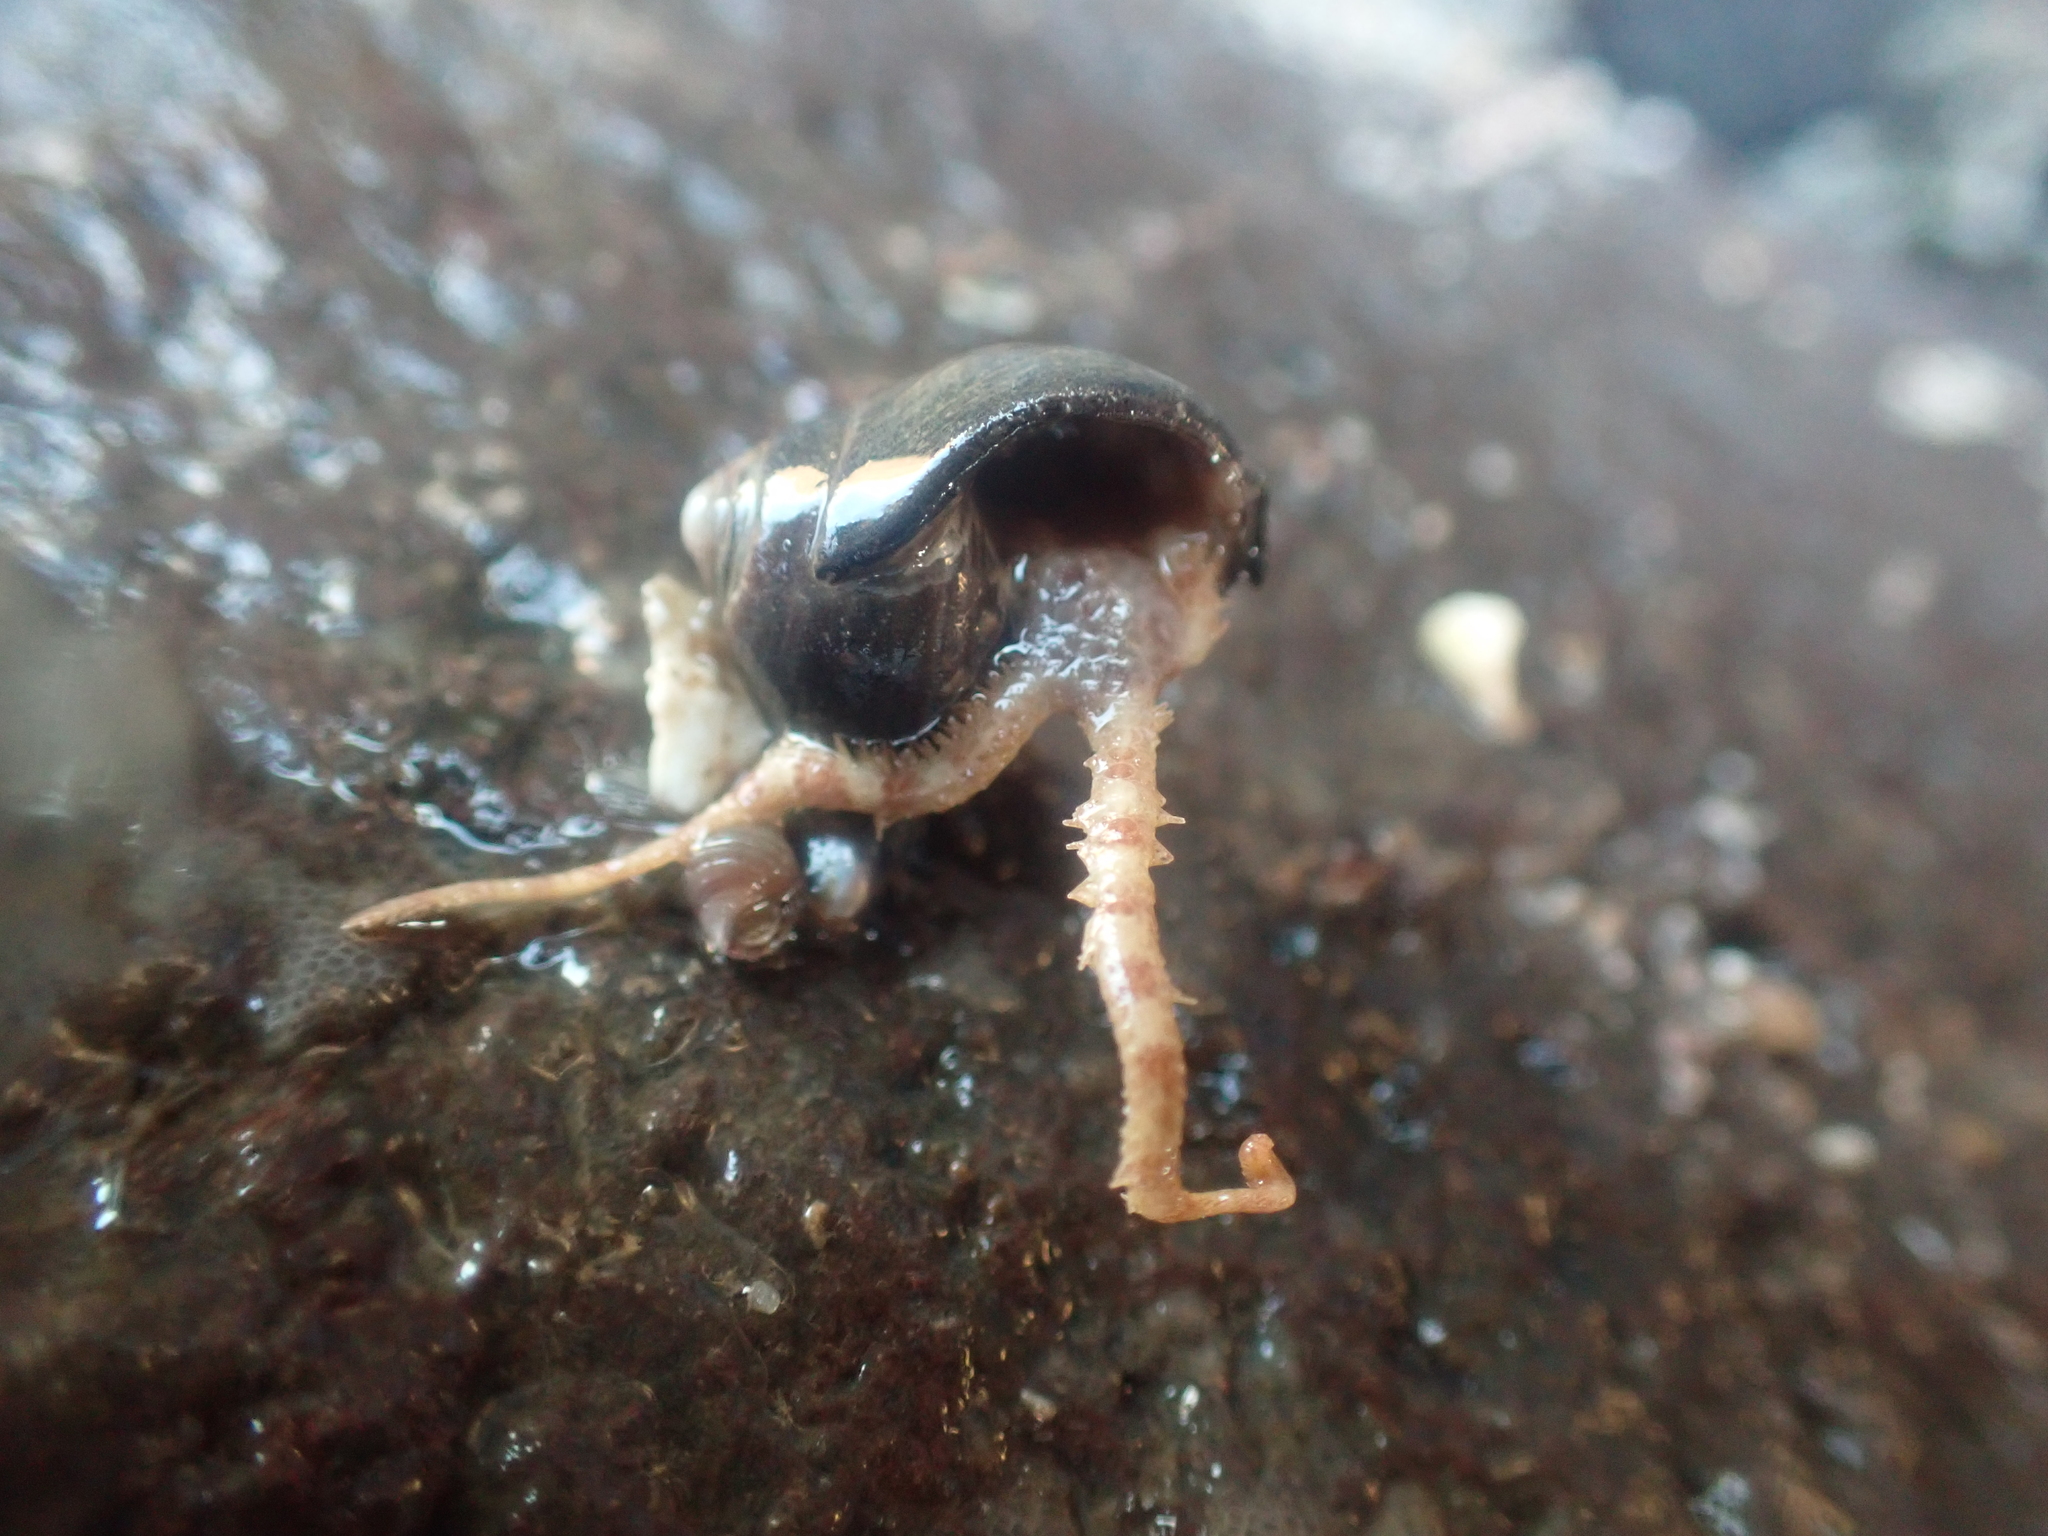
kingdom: Animalia
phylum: Echinodermata
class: Ophiuroidea
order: Amphilepidida
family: Ophiopholidae
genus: Ophiopholis
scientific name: Ophiopholis aculeata
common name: Crevice brittlestar
